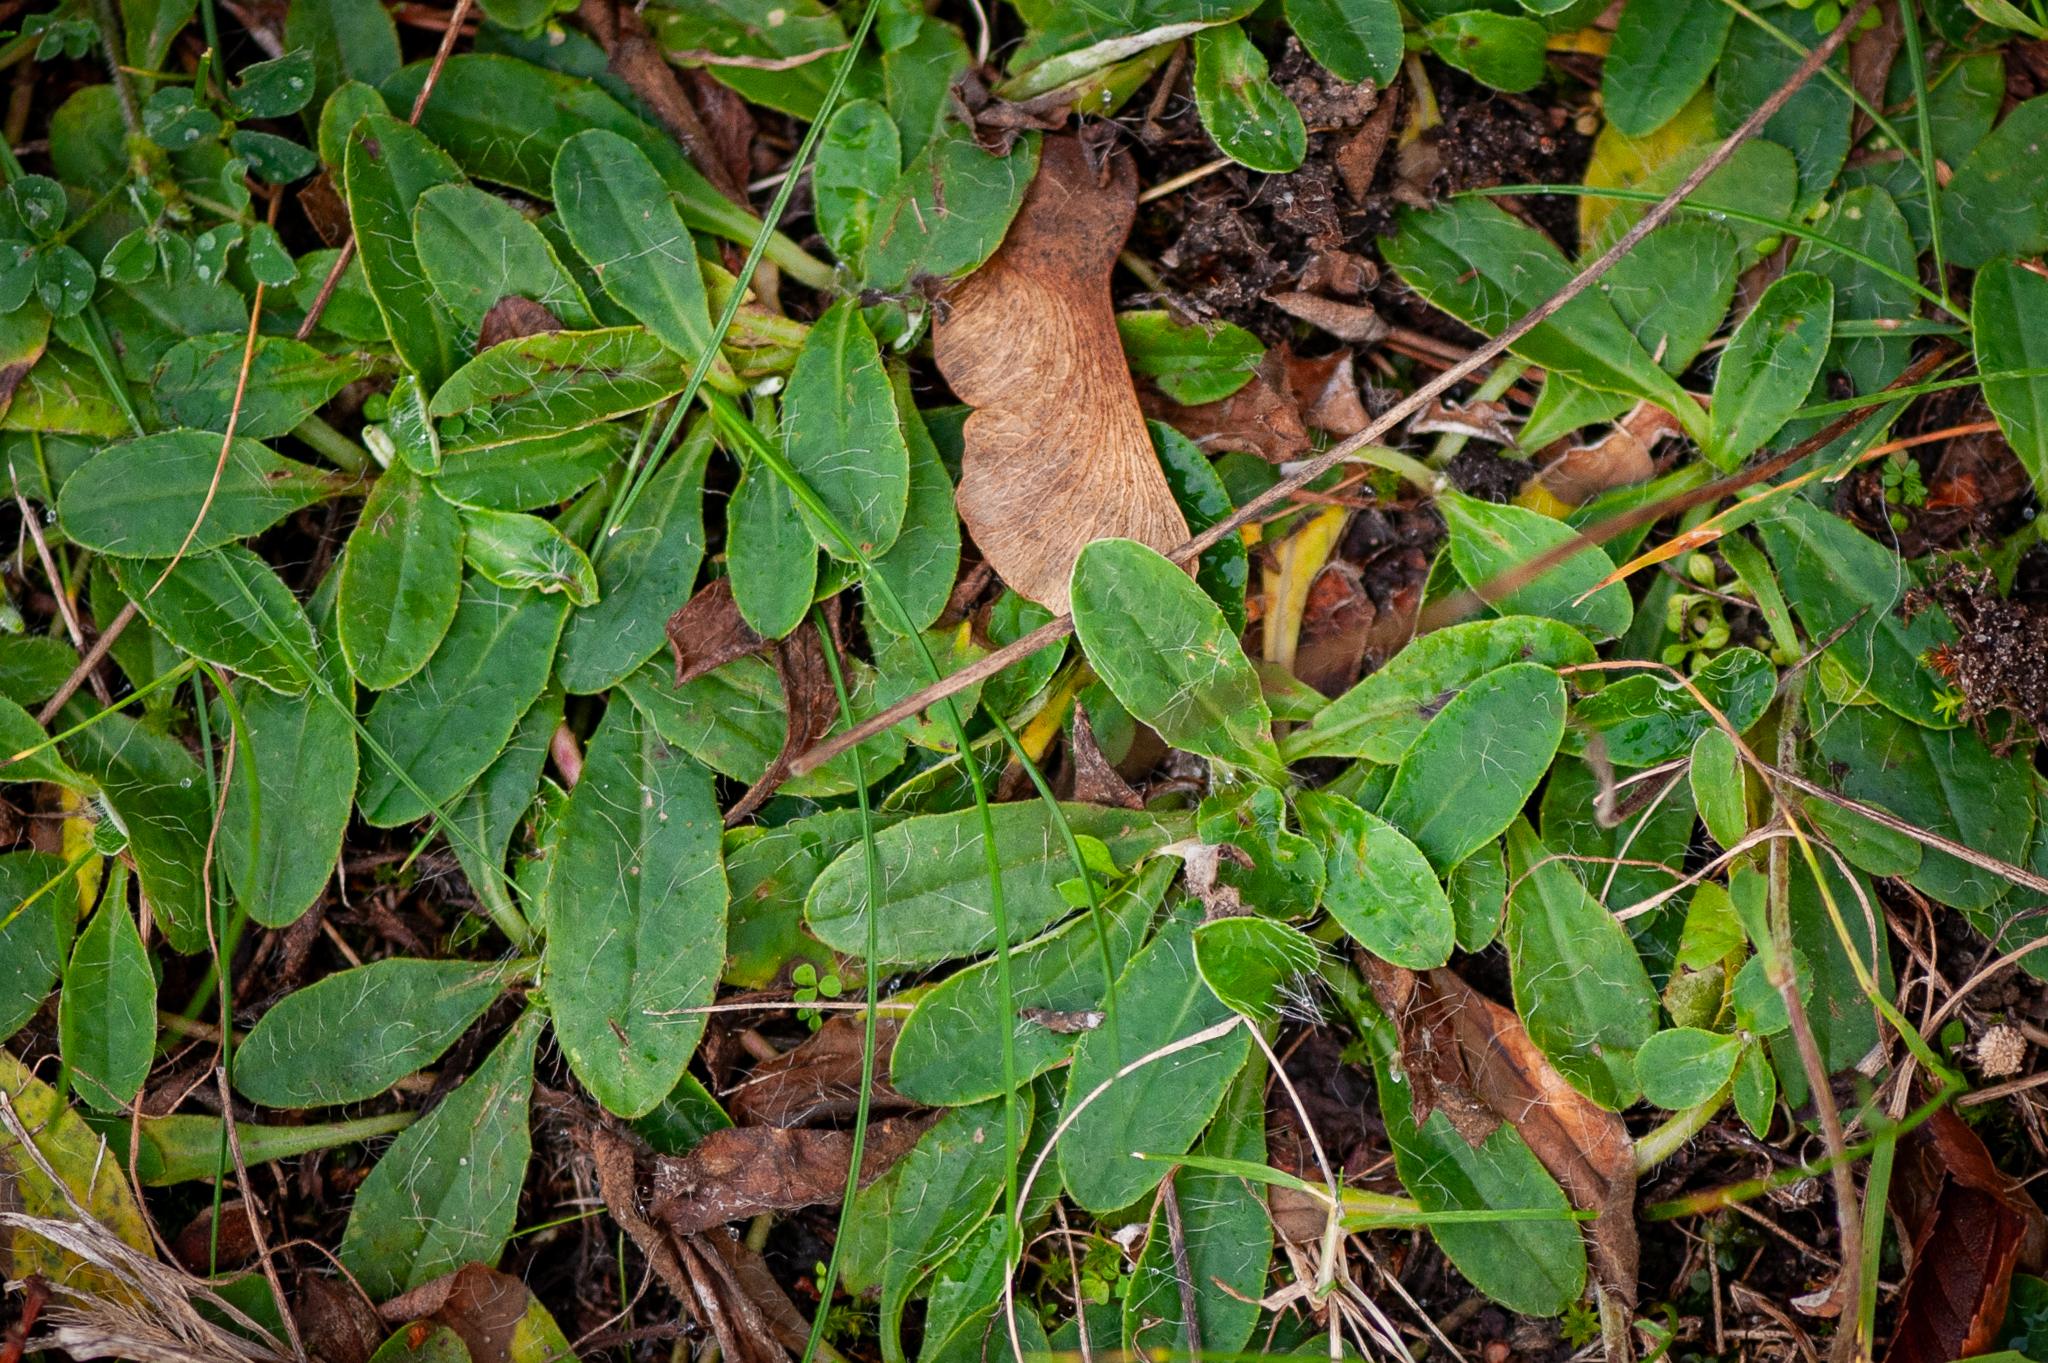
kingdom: Plantae
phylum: Tracheophyta
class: Magnoliopsida
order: Asterales
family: Asteraceae
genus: Pilosella
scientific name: Pilosella officinarum
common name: Mouse-ear hawkweed
